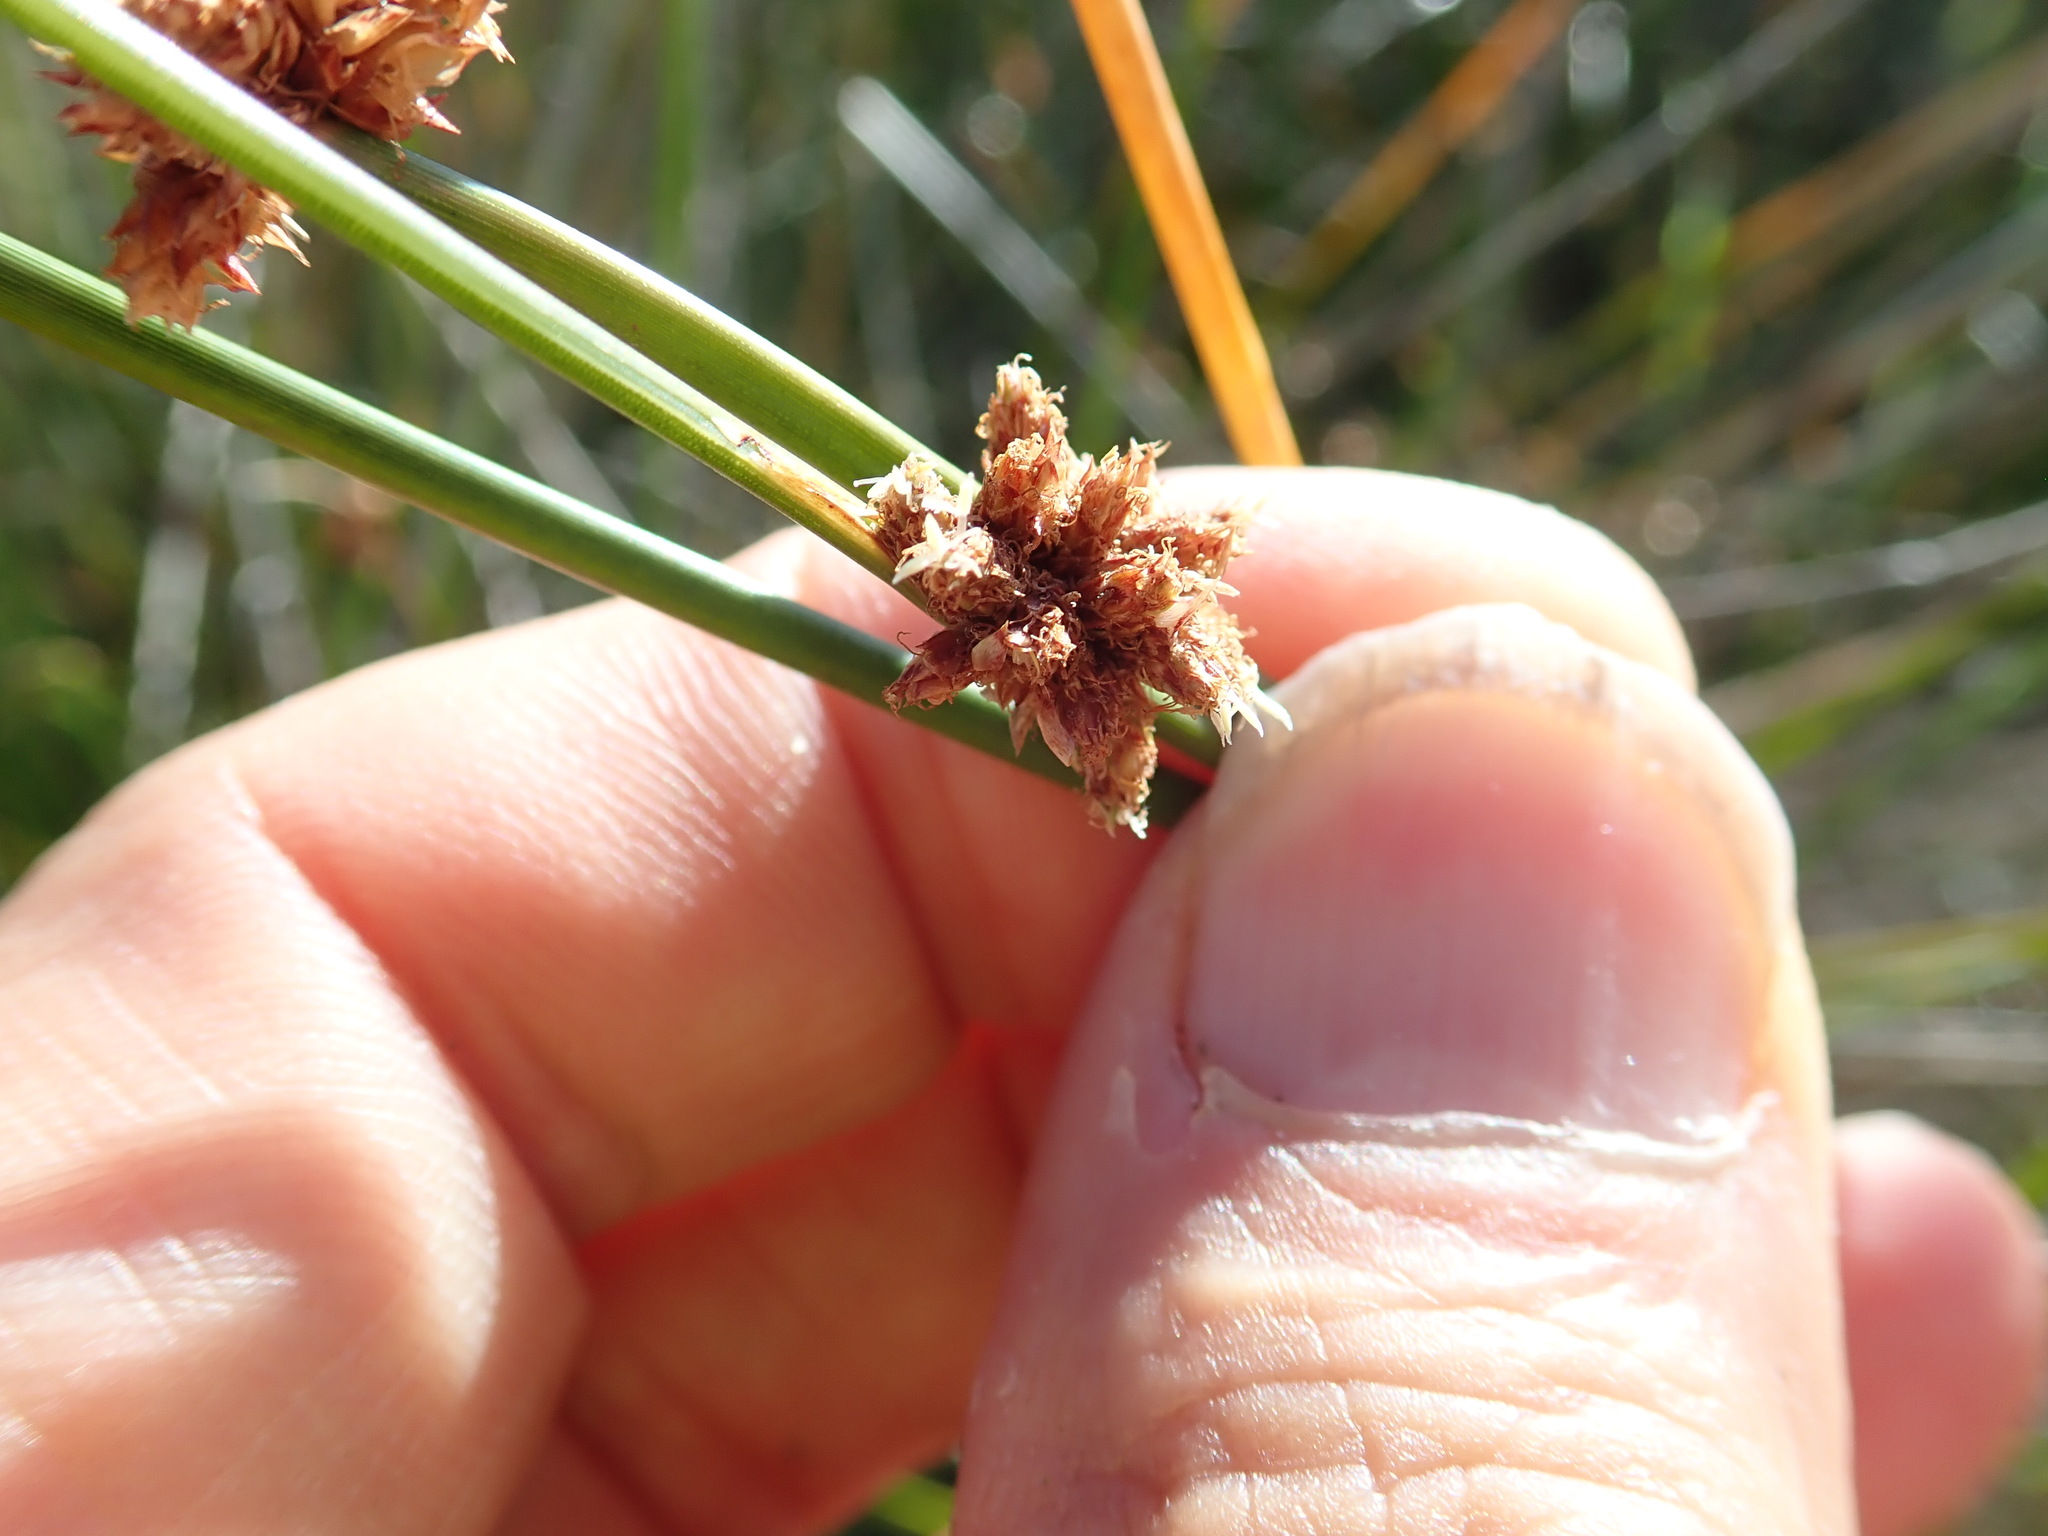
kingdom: Plantae
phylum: Tracheophyta
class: Liliopsida
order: Poales
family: Cyperaceae
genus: Ficinia
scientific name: Ficinia nodosa
